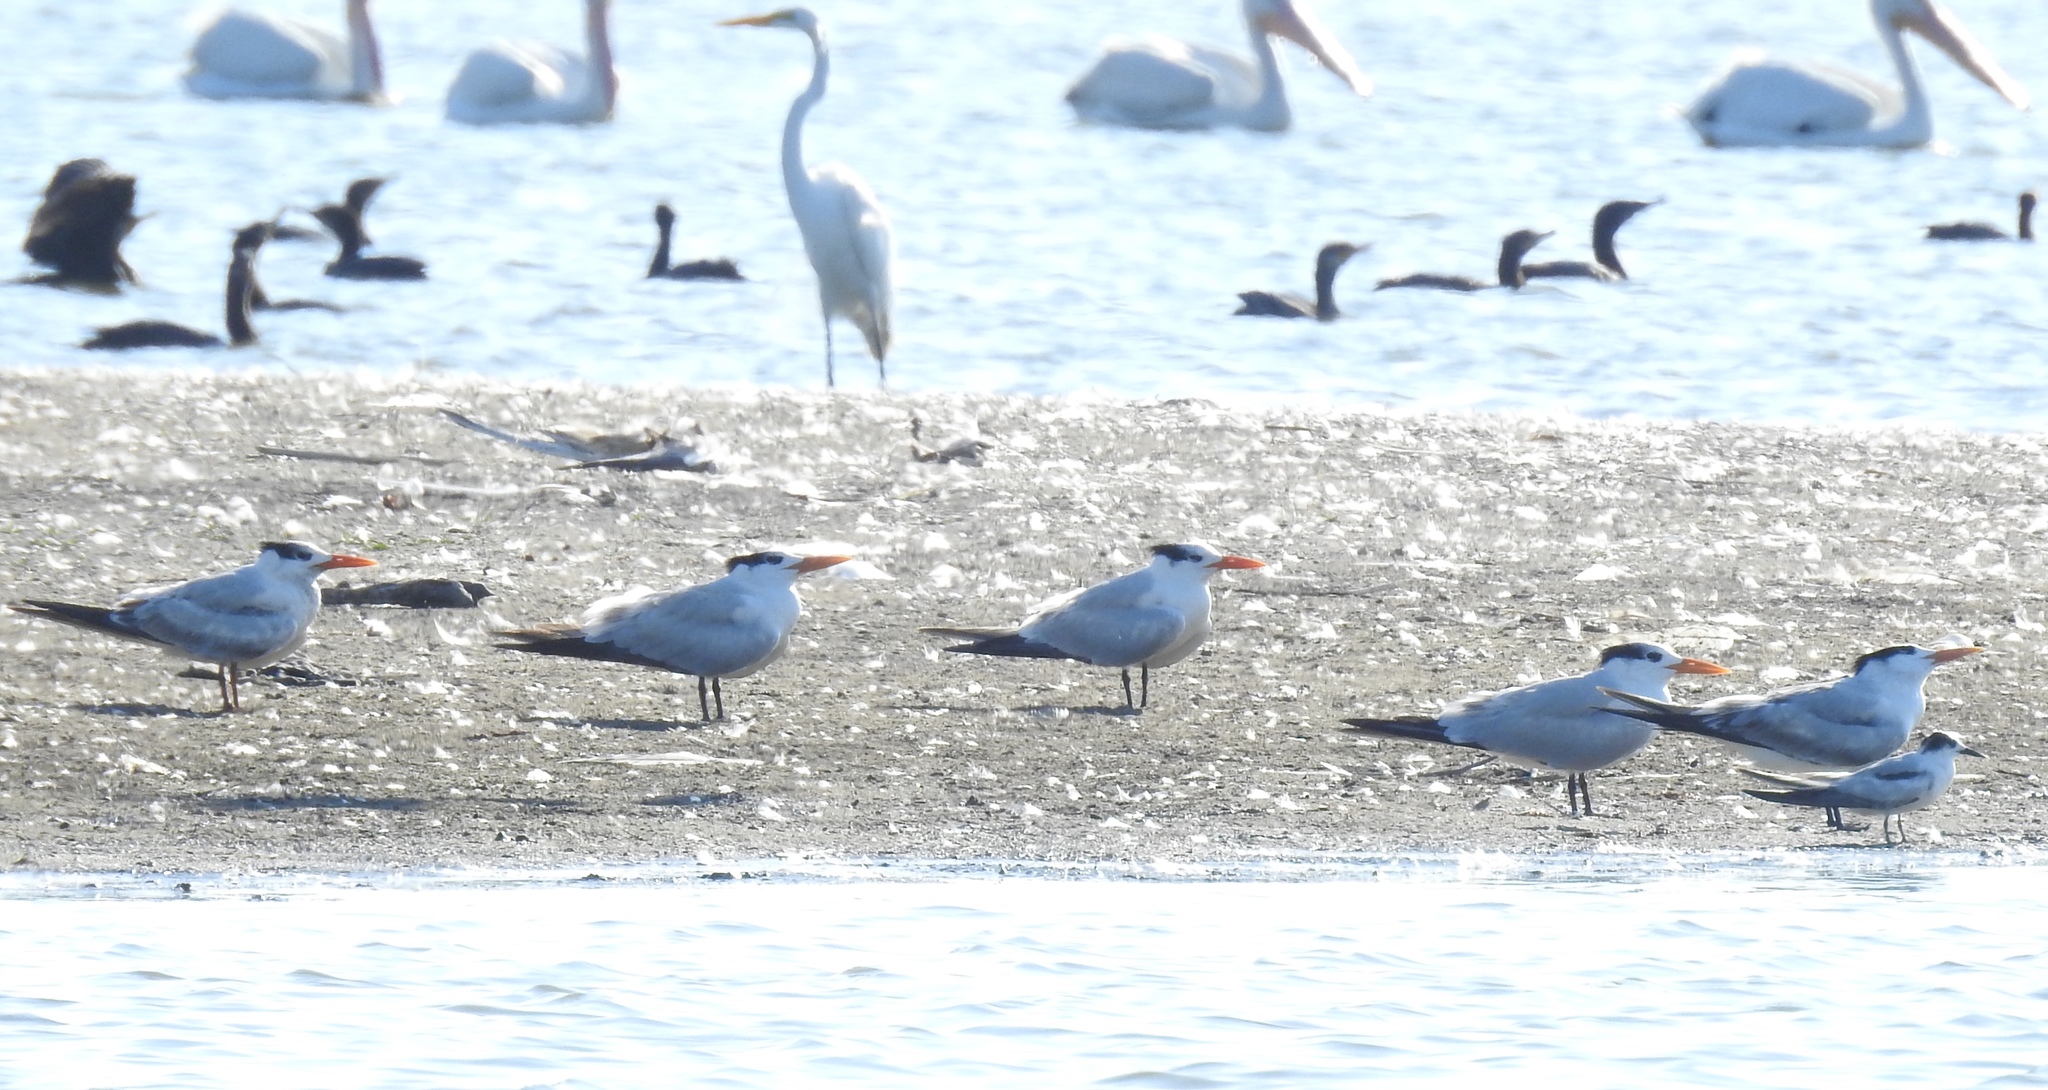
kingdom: Animalia
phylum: Chordata
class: Aves
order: Charadriiformes
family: Laridae
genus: Thalasseus
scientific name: Thalasseus maximus
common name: Royal tern
